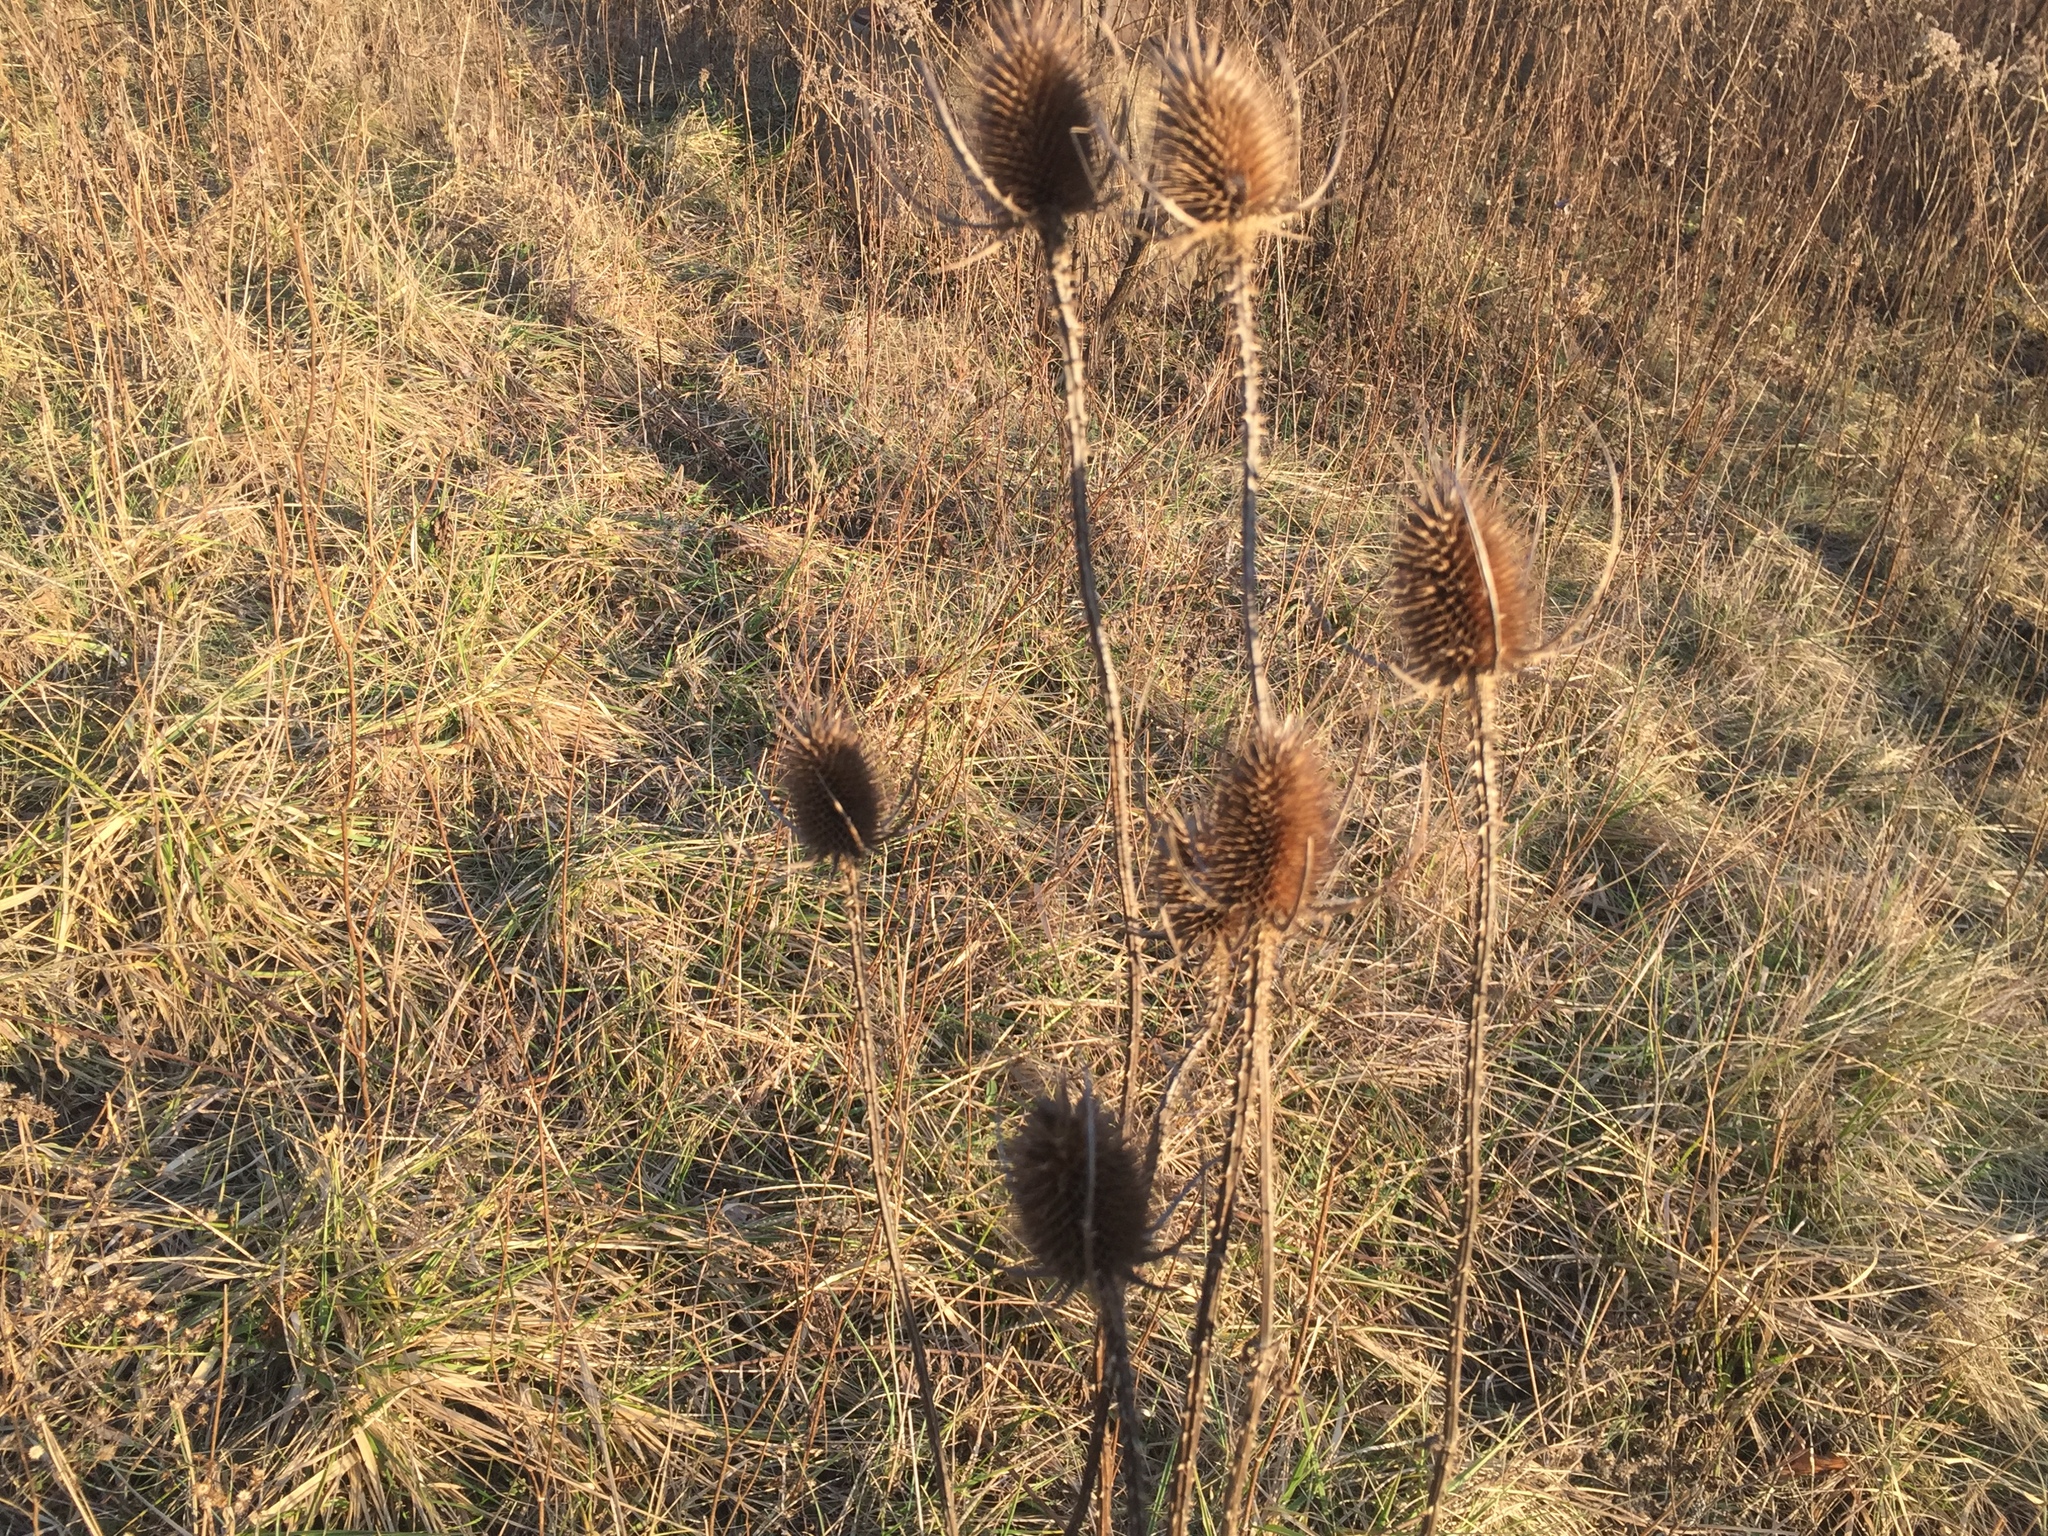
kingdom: Plantae
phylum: Tracheophyta
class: Magnoliopsida
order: Dipsacales
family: Caprifoliaceae
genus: Dipsacus
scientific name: Dipsacus fullonum
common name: Teasel
